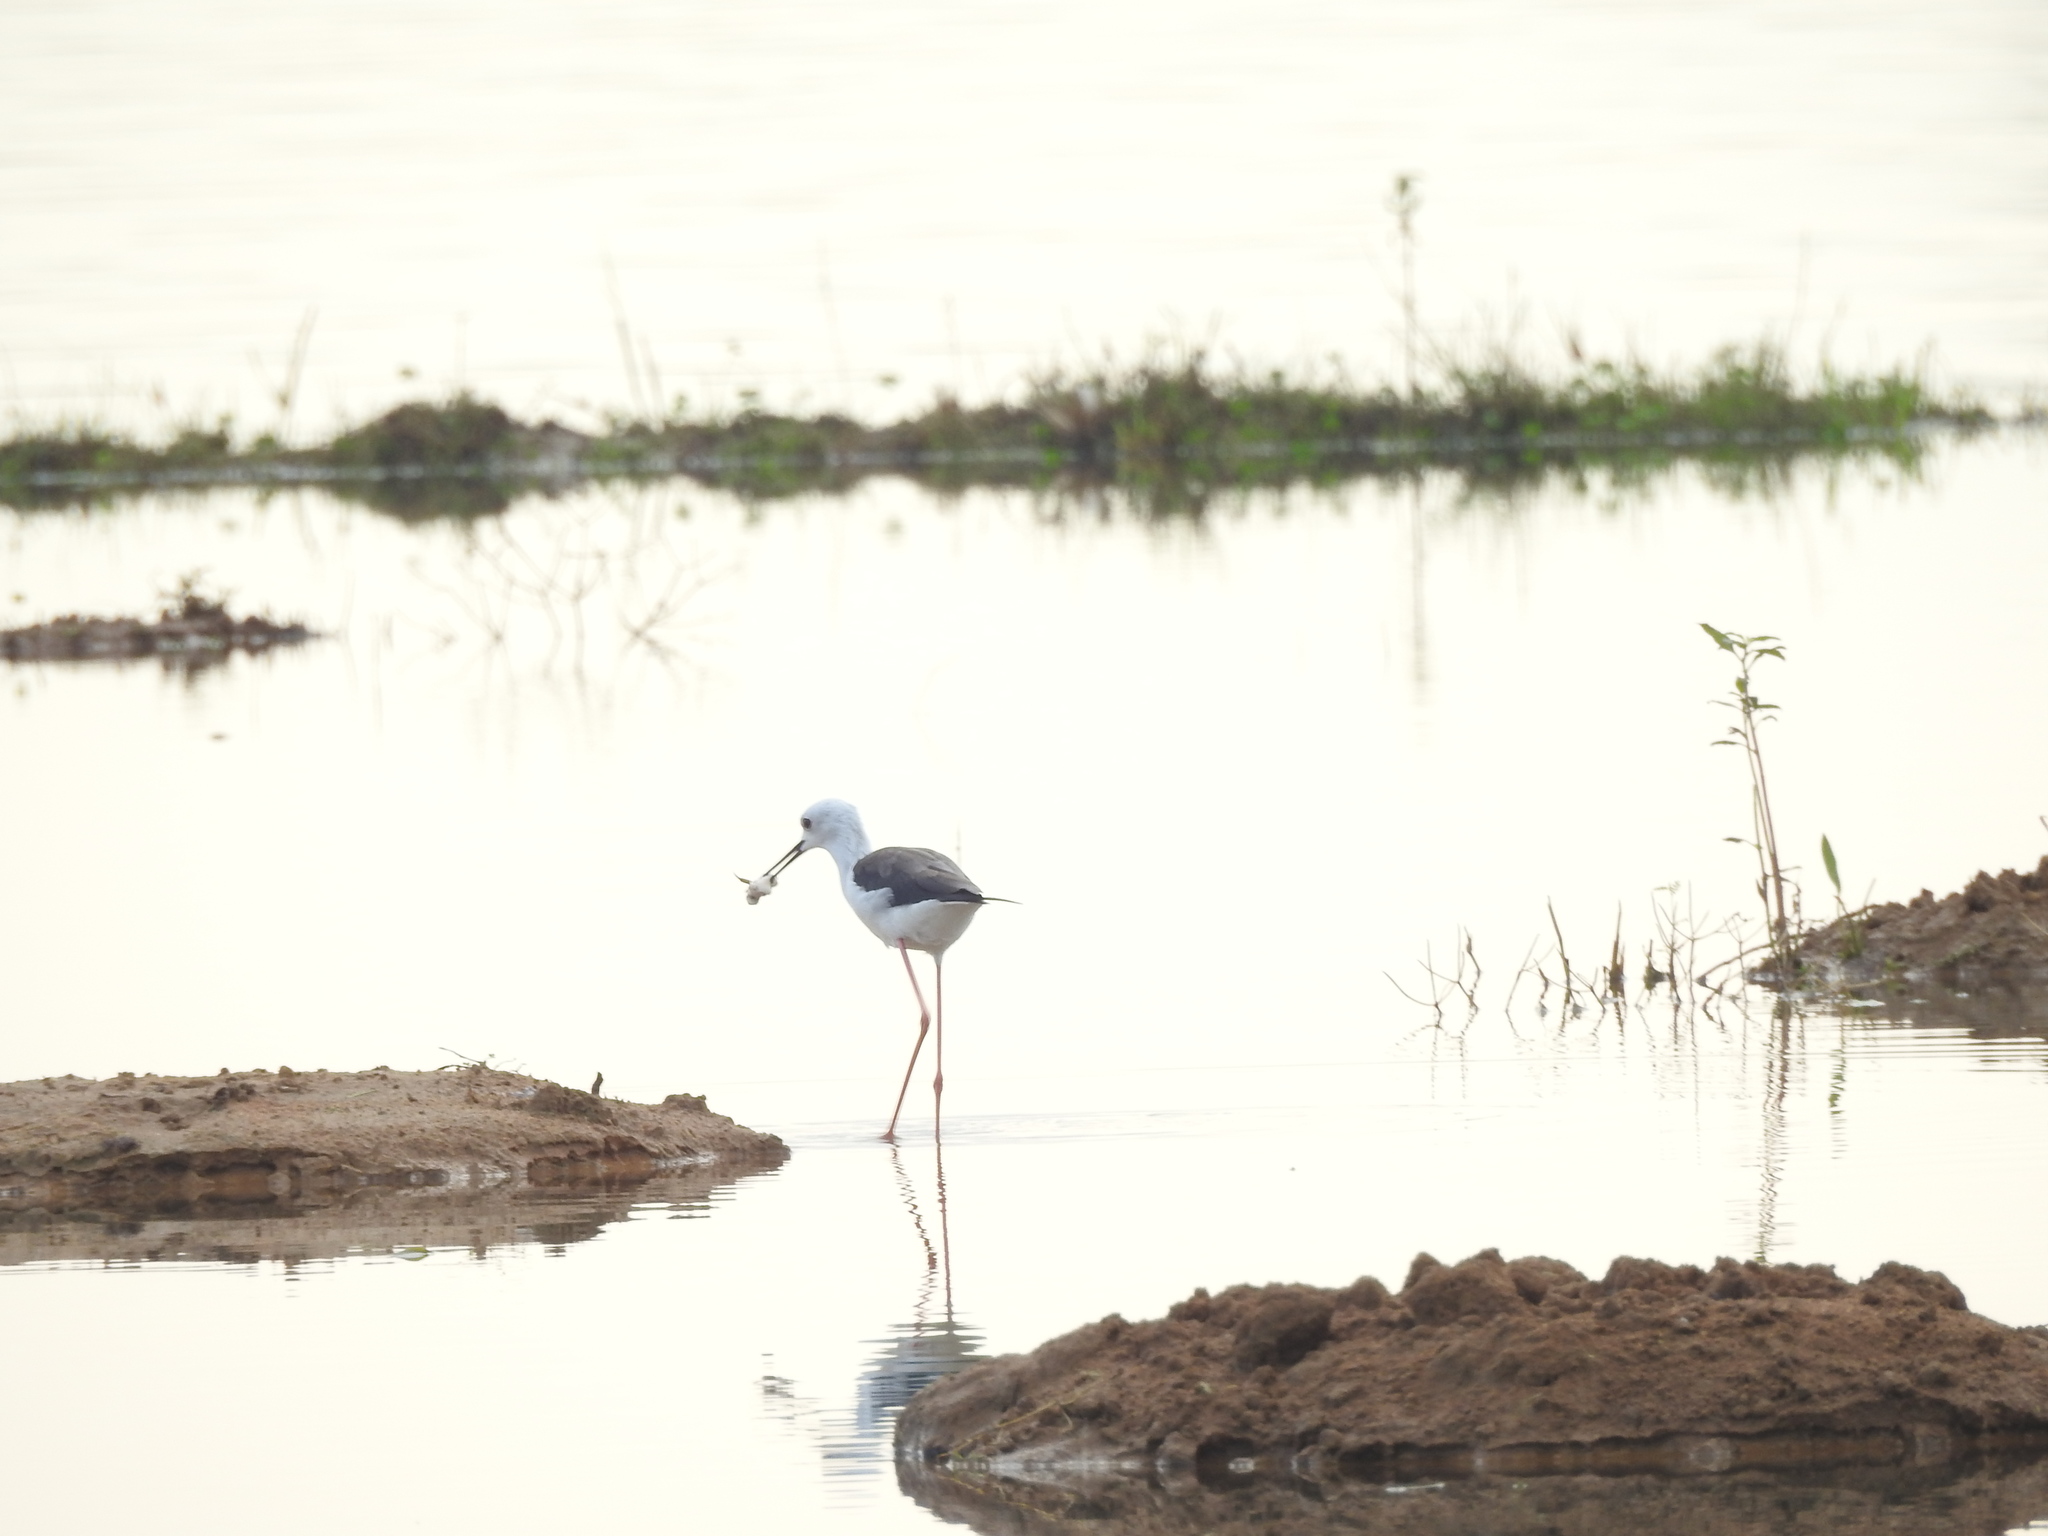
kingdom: Animalia
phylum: Chordata
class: Aves
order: Charadriiformes
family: Recurvirostridae
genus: Himantopus
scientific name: Himantopus himantopus
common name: Black-winged stilt
